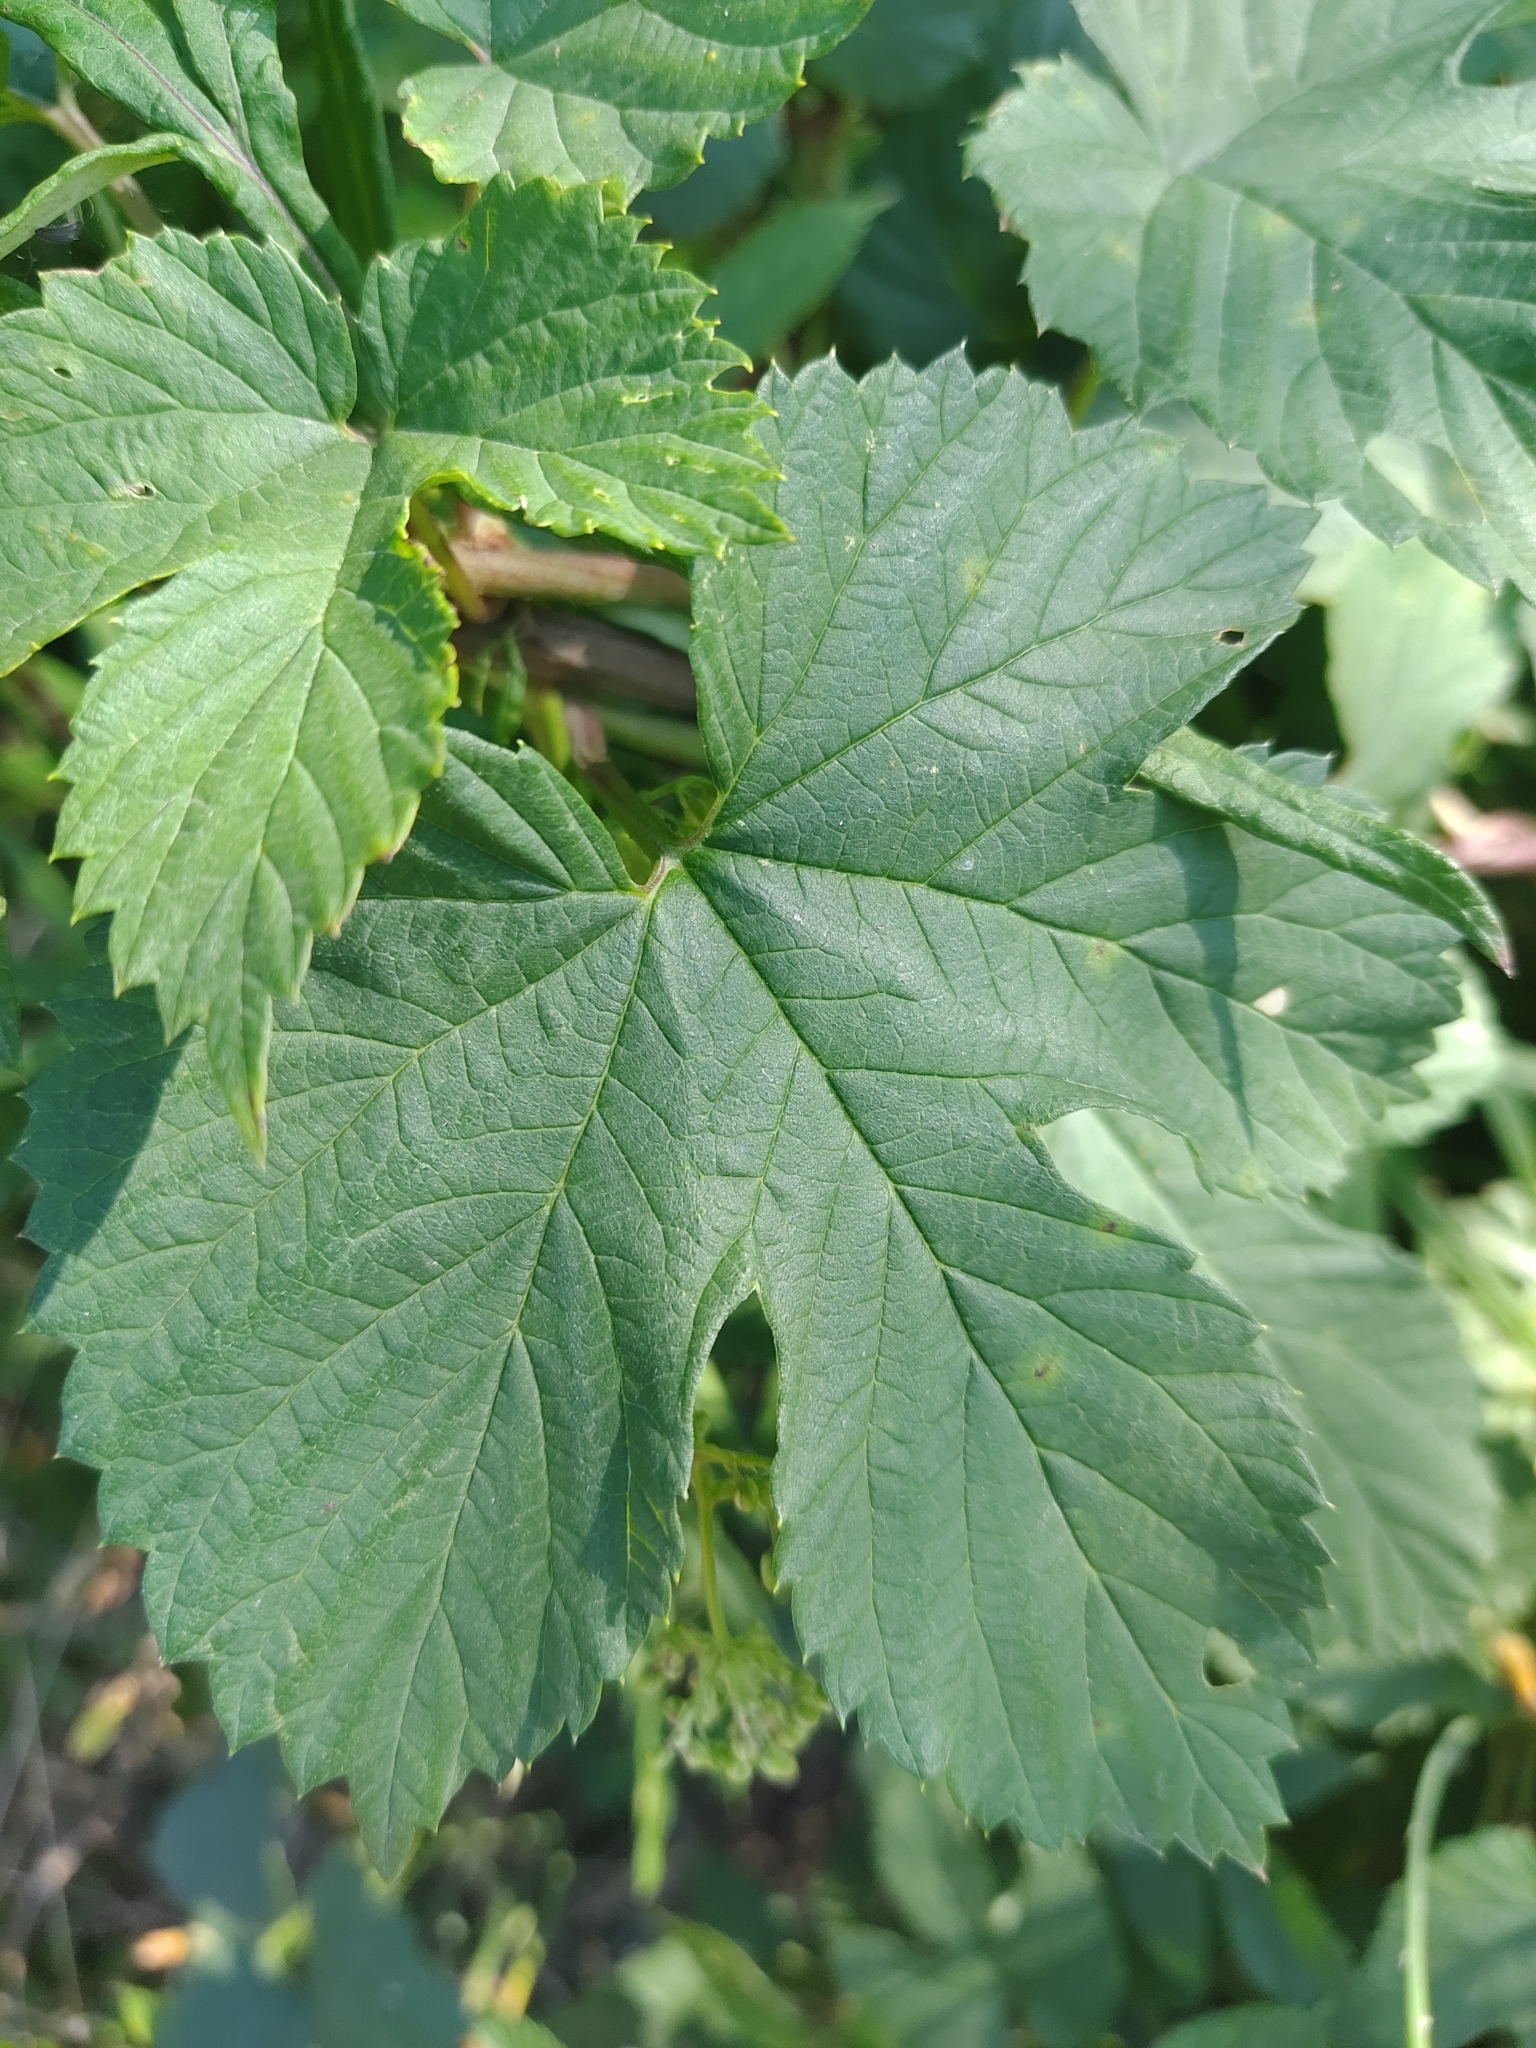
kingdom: Plantae
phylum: Tracheophyta
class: Magnoliopsida
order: Rosales
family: Cannabaceae
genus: Humulus
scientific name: Humulus lupulus
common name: Hop
